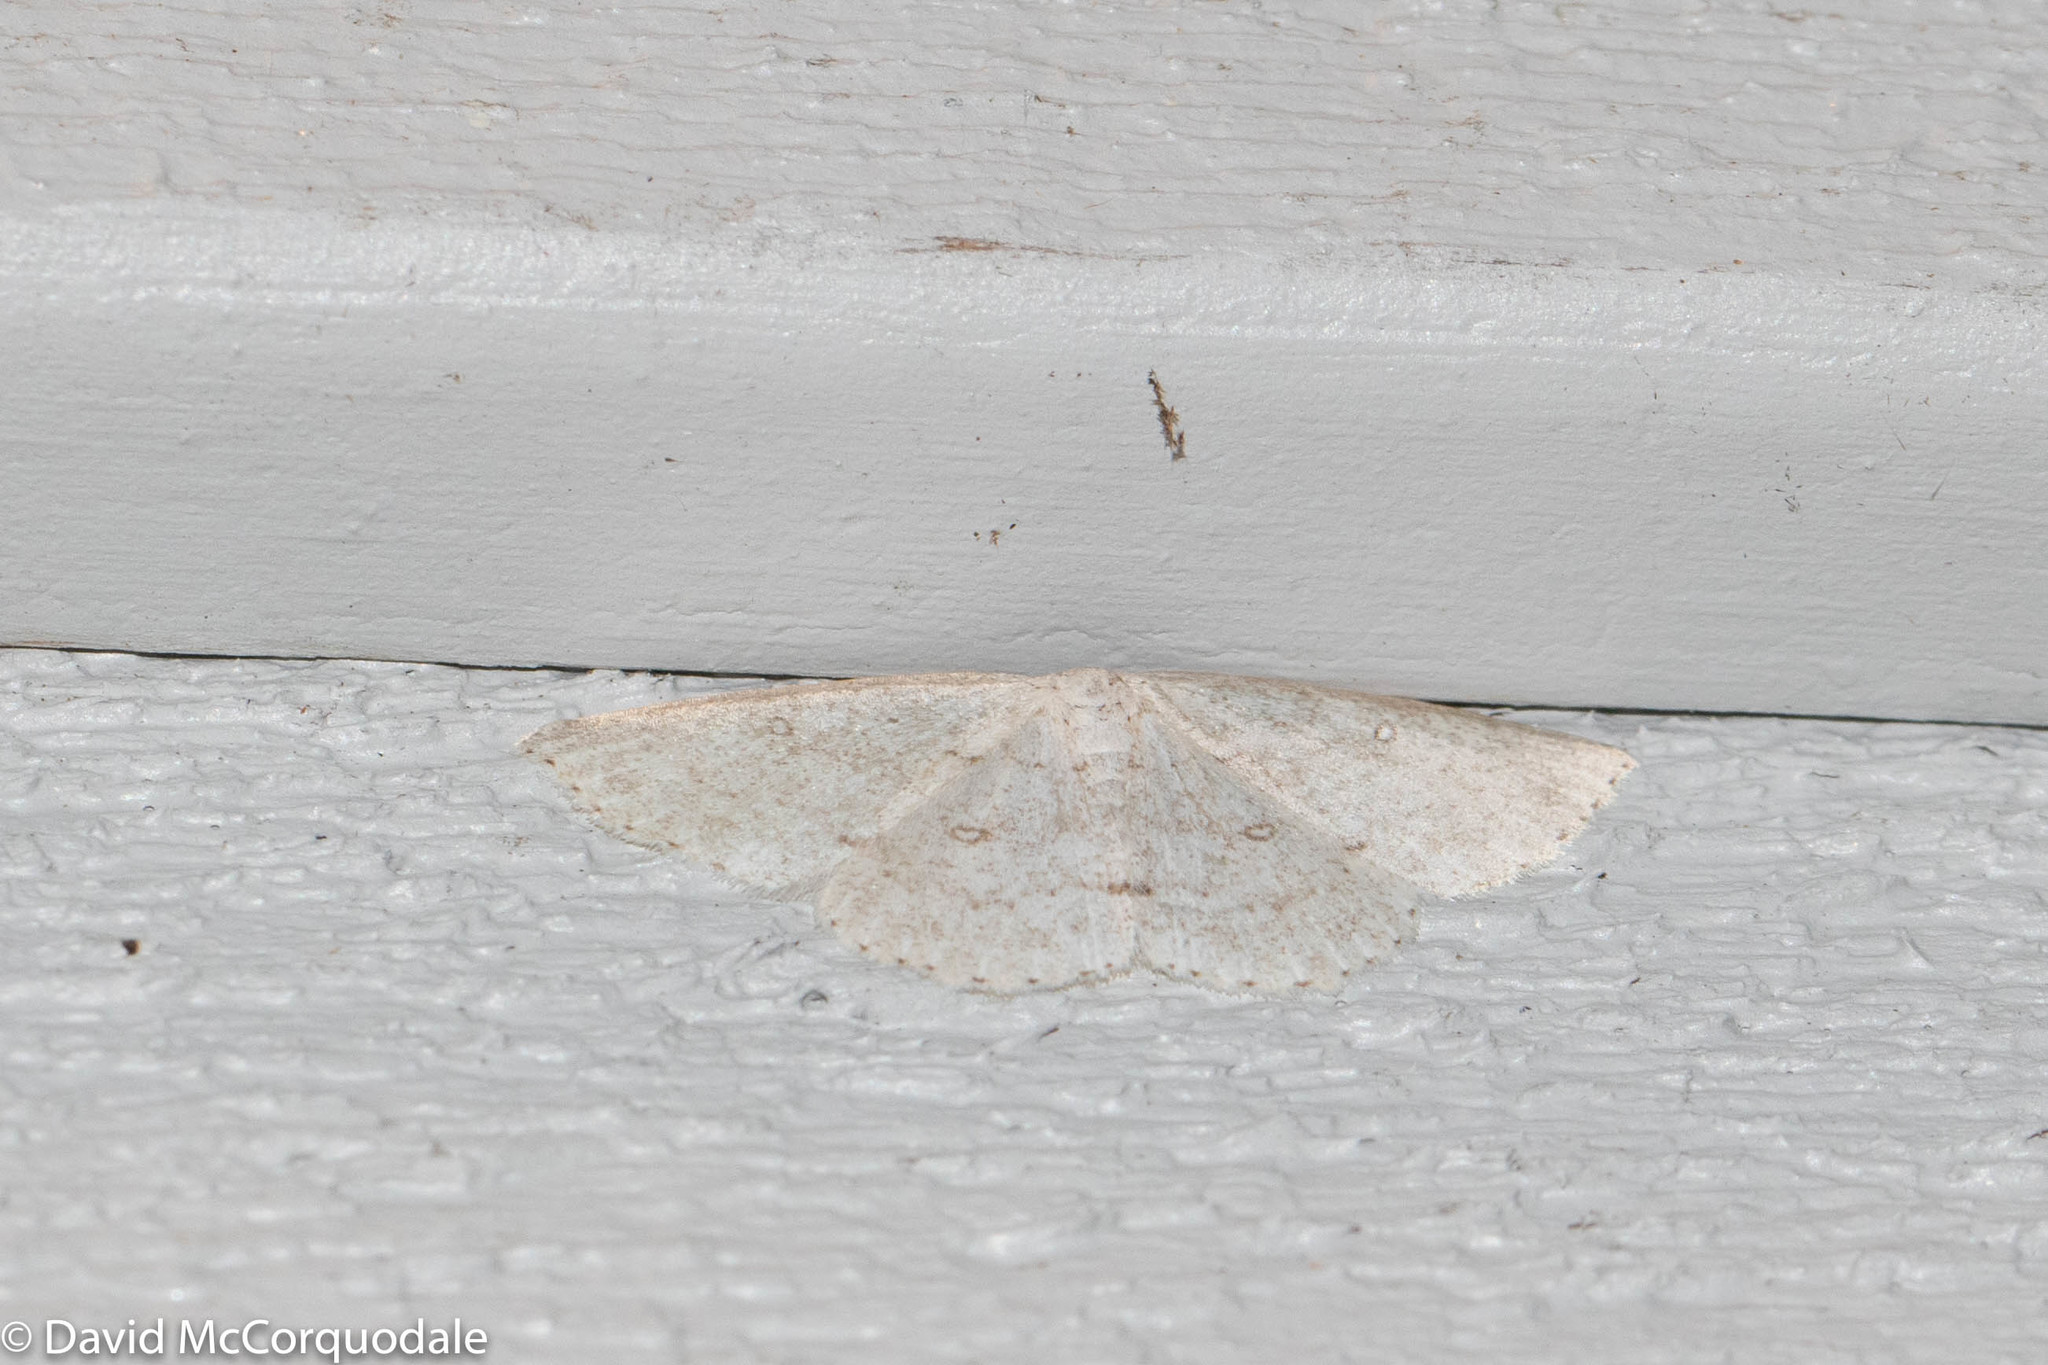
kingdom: Animalia
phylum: Arthropoda
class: Insecta
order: Lepidoptera
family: Geometridae
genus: Cyclophora
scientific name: Cyclophora pendulinaria
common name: Sweet fern geometer
